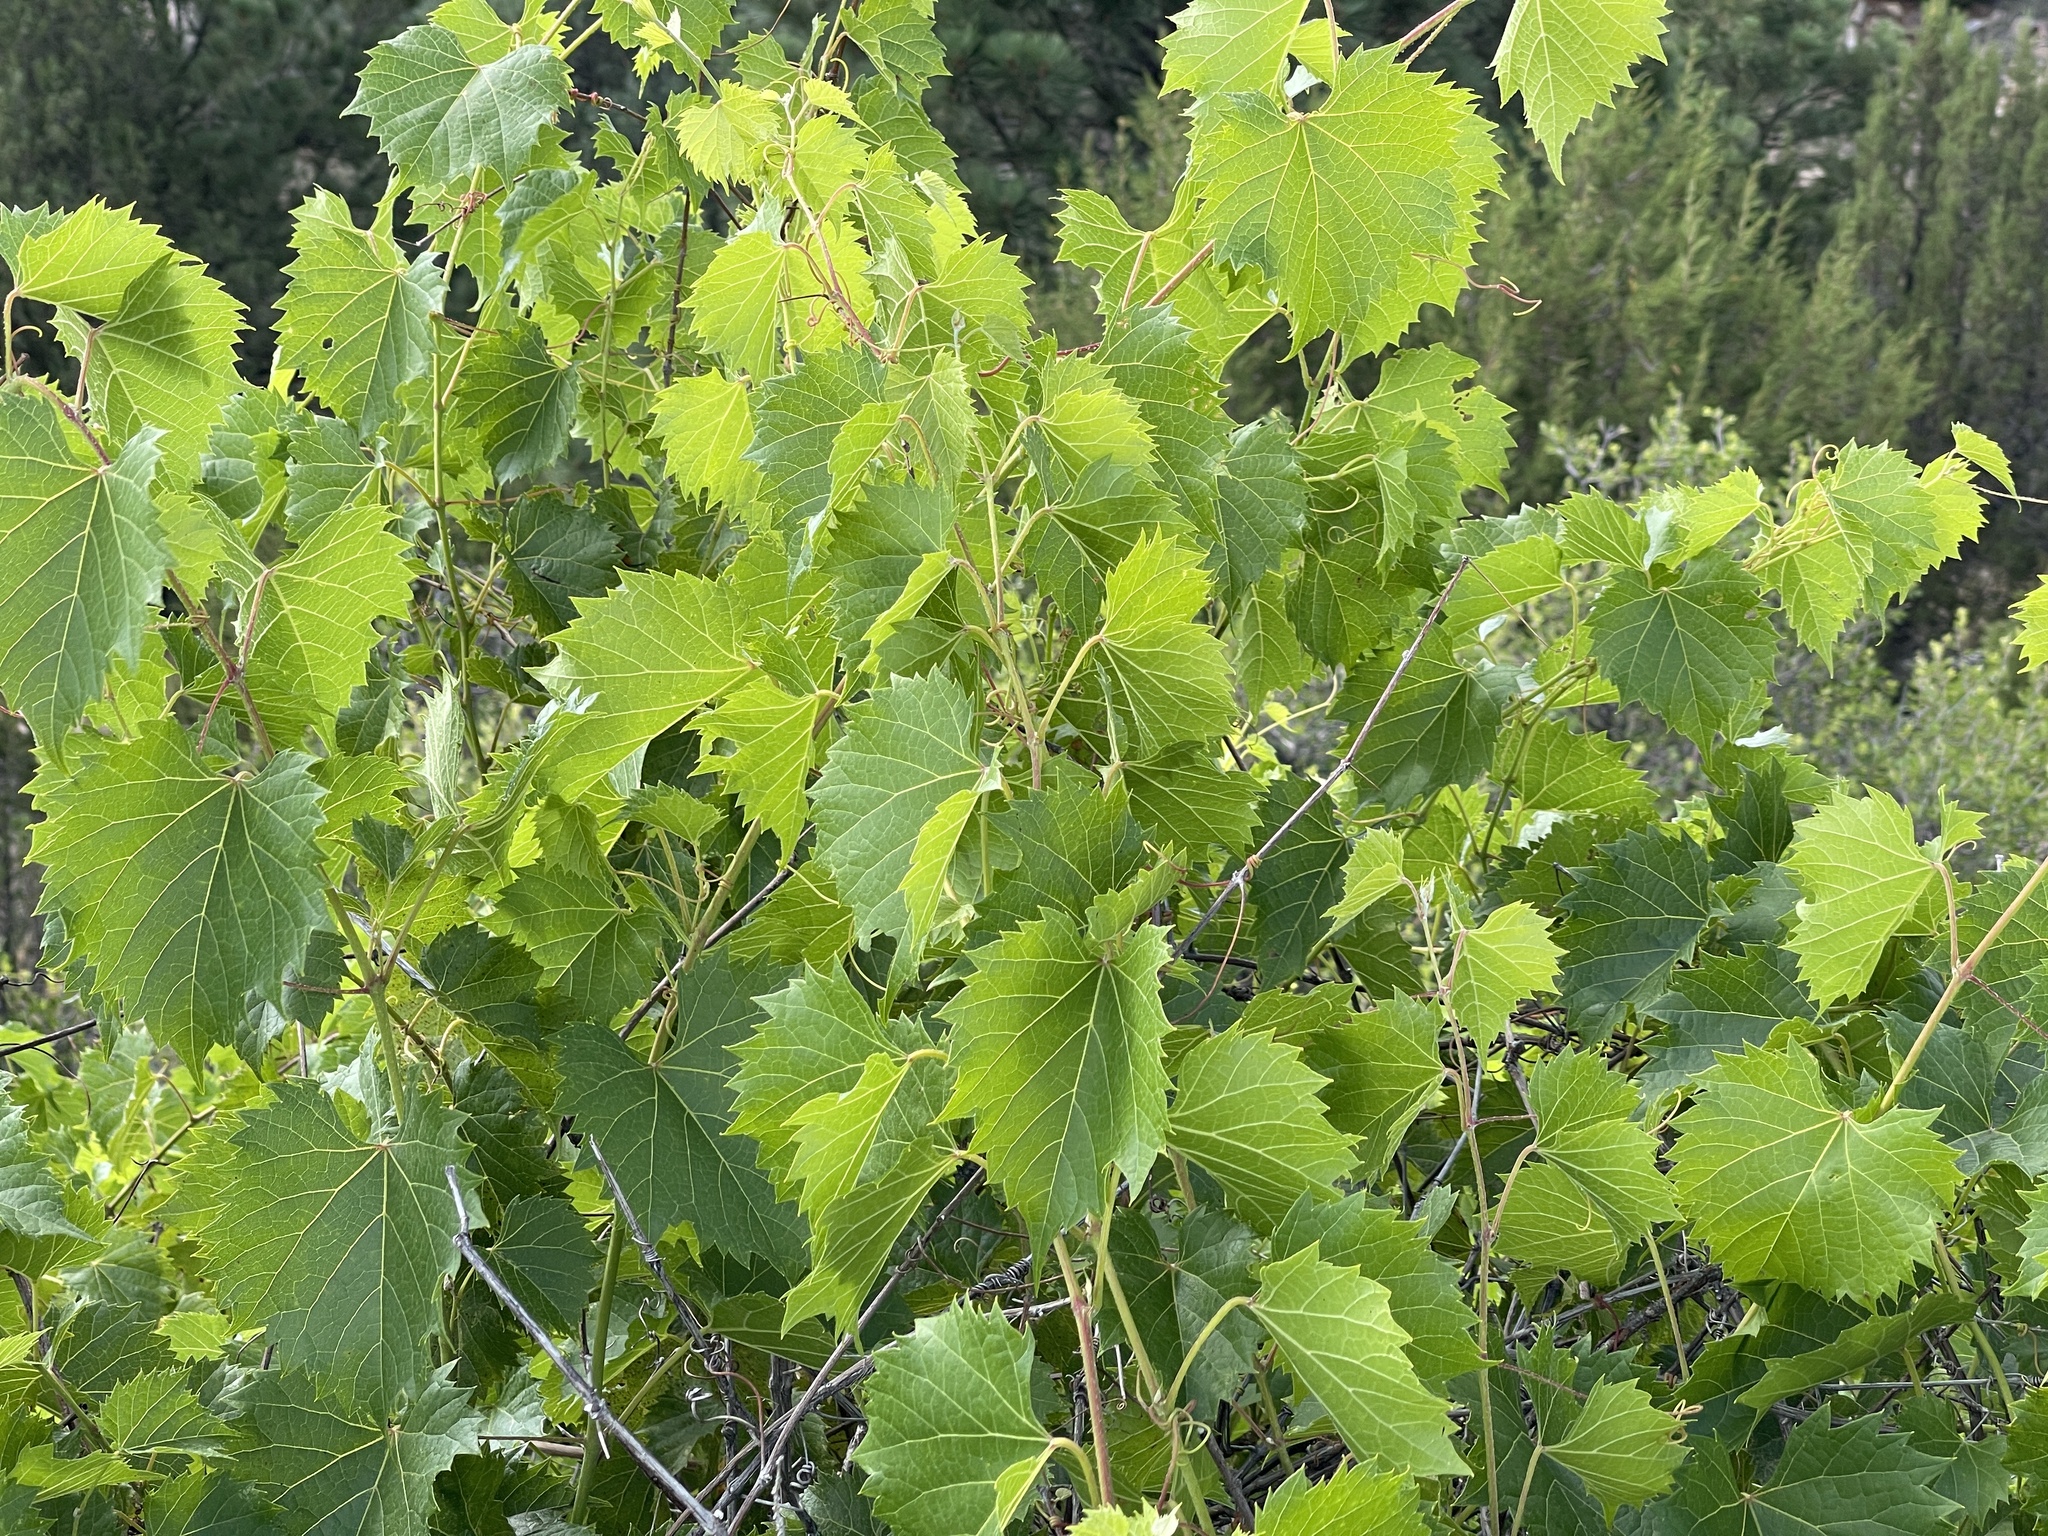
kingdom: Plantae
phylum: Tracheophyta
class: Magnoliopsida
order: Vitales
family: Vitaceae
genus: Vitis
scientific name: Vitis arizonica
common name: Canyon grape
